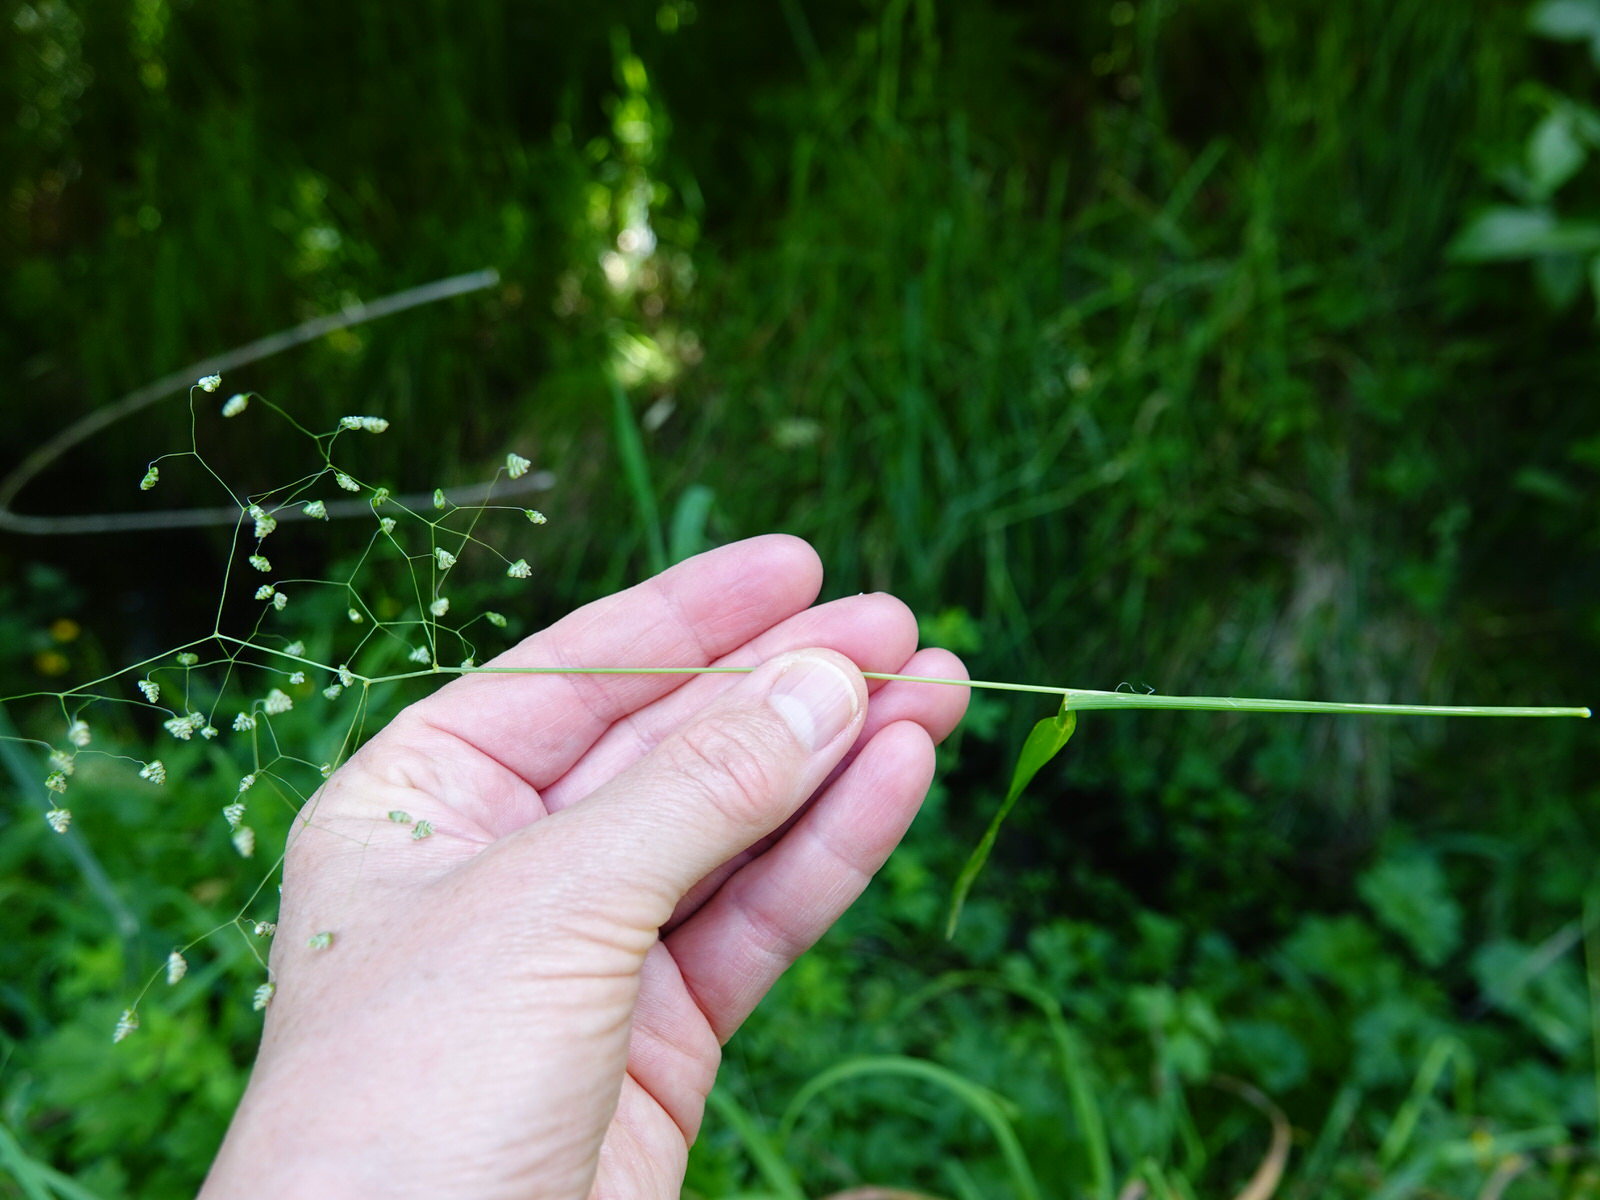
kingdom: Plantae
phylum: Tracheophyta
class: Liliopsida
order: Poales
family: Poaceae
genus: Briza
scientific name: Briza minor
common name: Lesser quaking-grass
